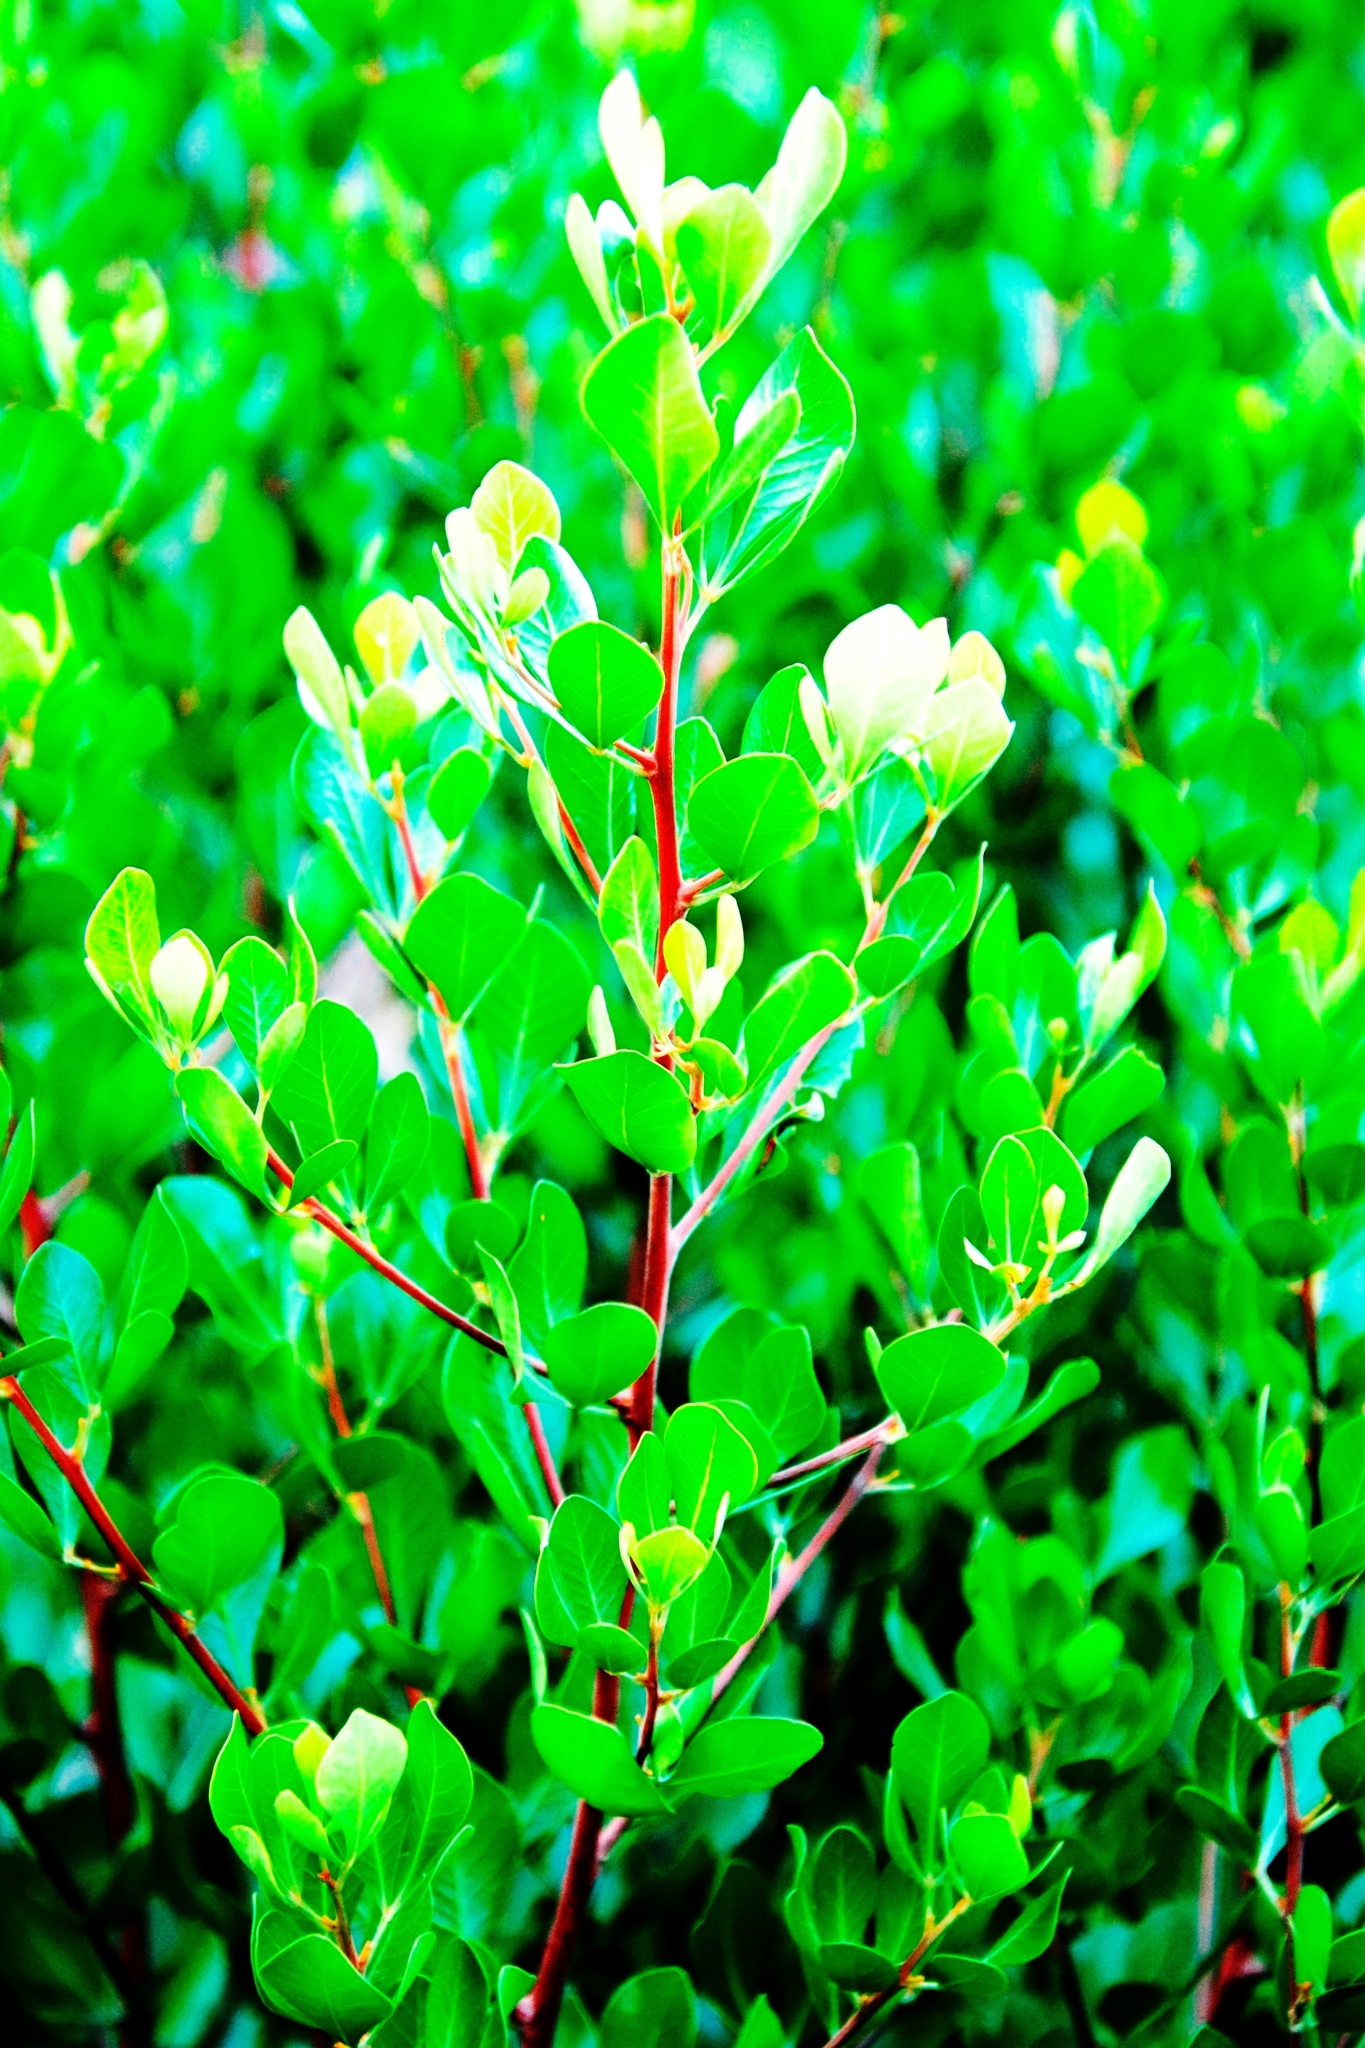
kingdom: Plantae
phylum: Tracheophyta
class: Magnoliopsida
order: Sapindales
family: Anacardiaceae
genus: Searsia
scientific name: Searsia lucida
